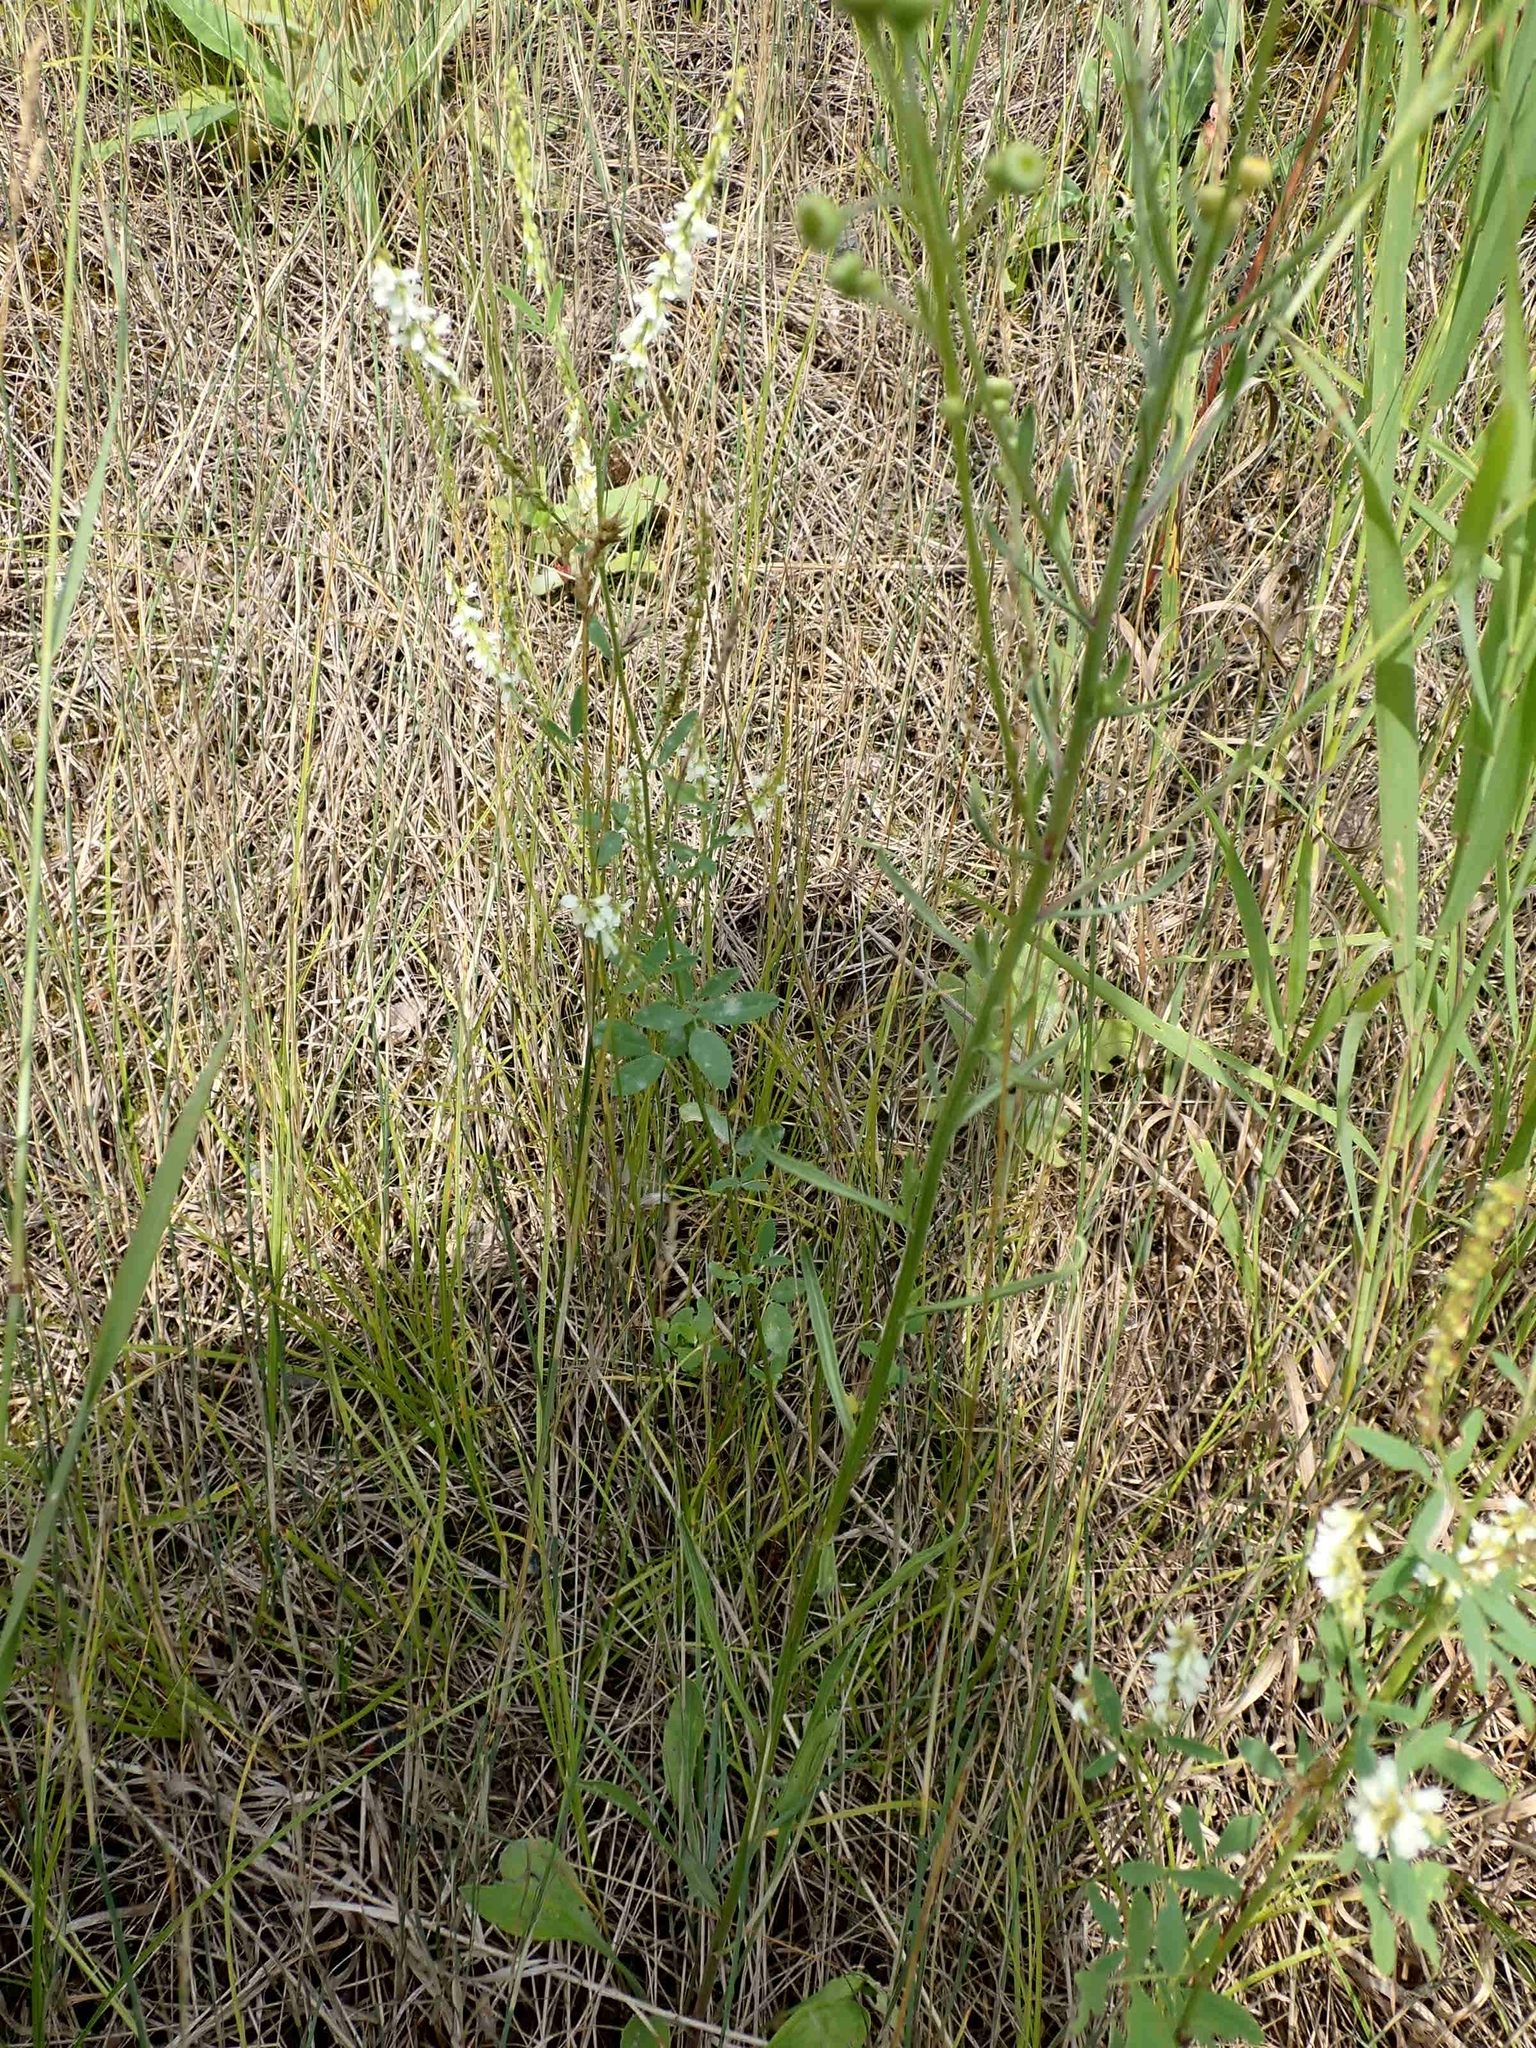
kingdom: Plantae
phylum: Tracheophyta
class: Magnoliopsida
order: Fabales
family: Fabaceae
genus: Melilotus
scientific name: Melilotus albus
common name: White melilot
